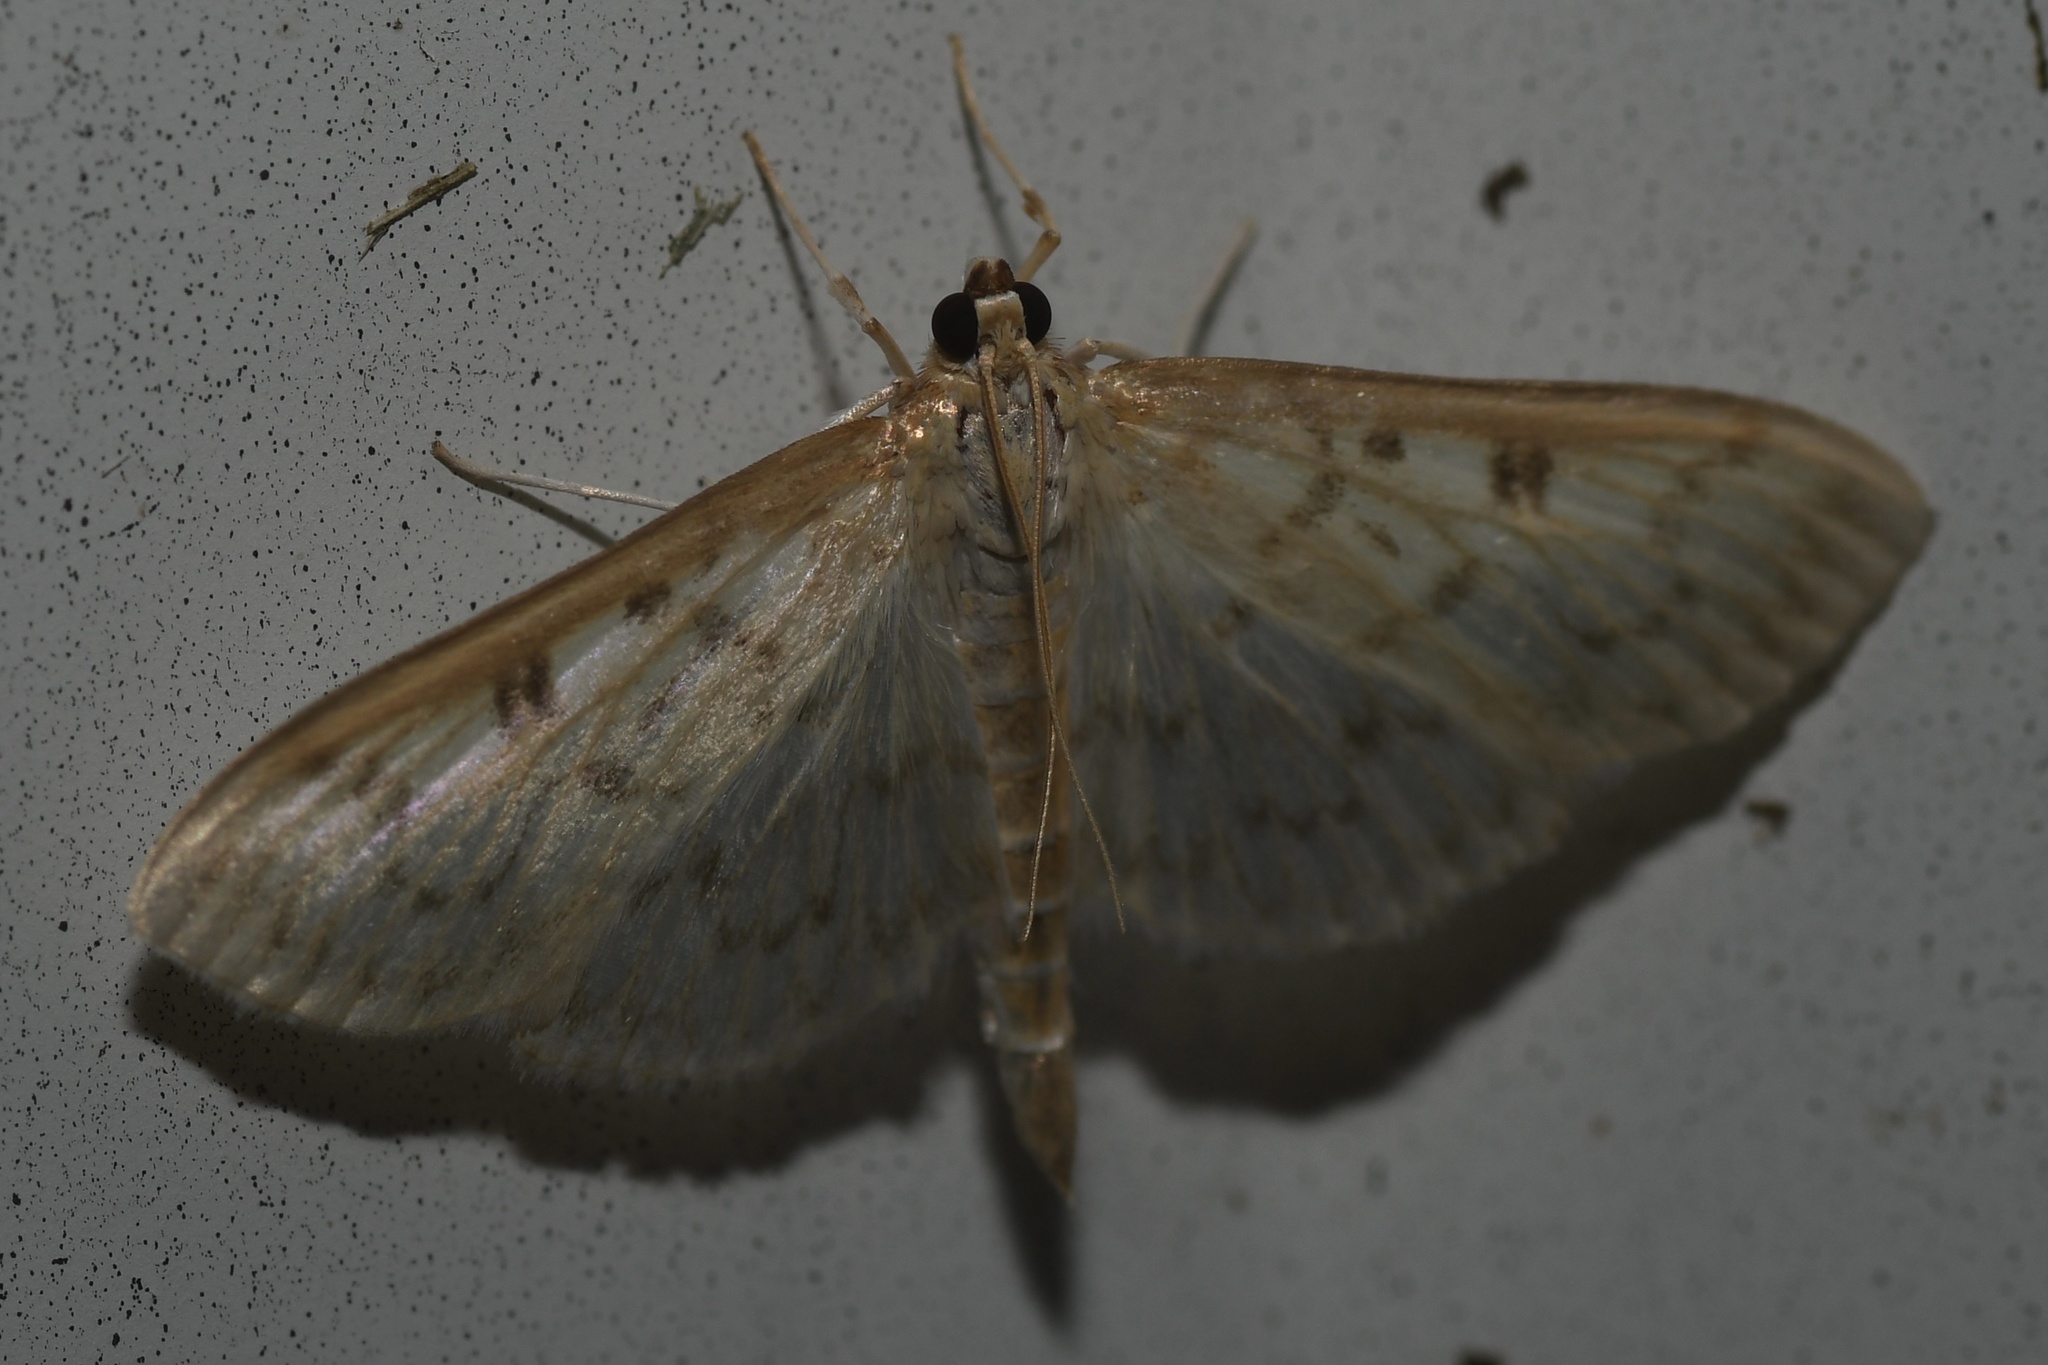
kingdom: Animalia
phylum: Arthropoda
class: Insecta
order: Lepidoptera
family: Crambidae
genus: Herpetogramma
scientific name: Herpetogramma aquilonalis
